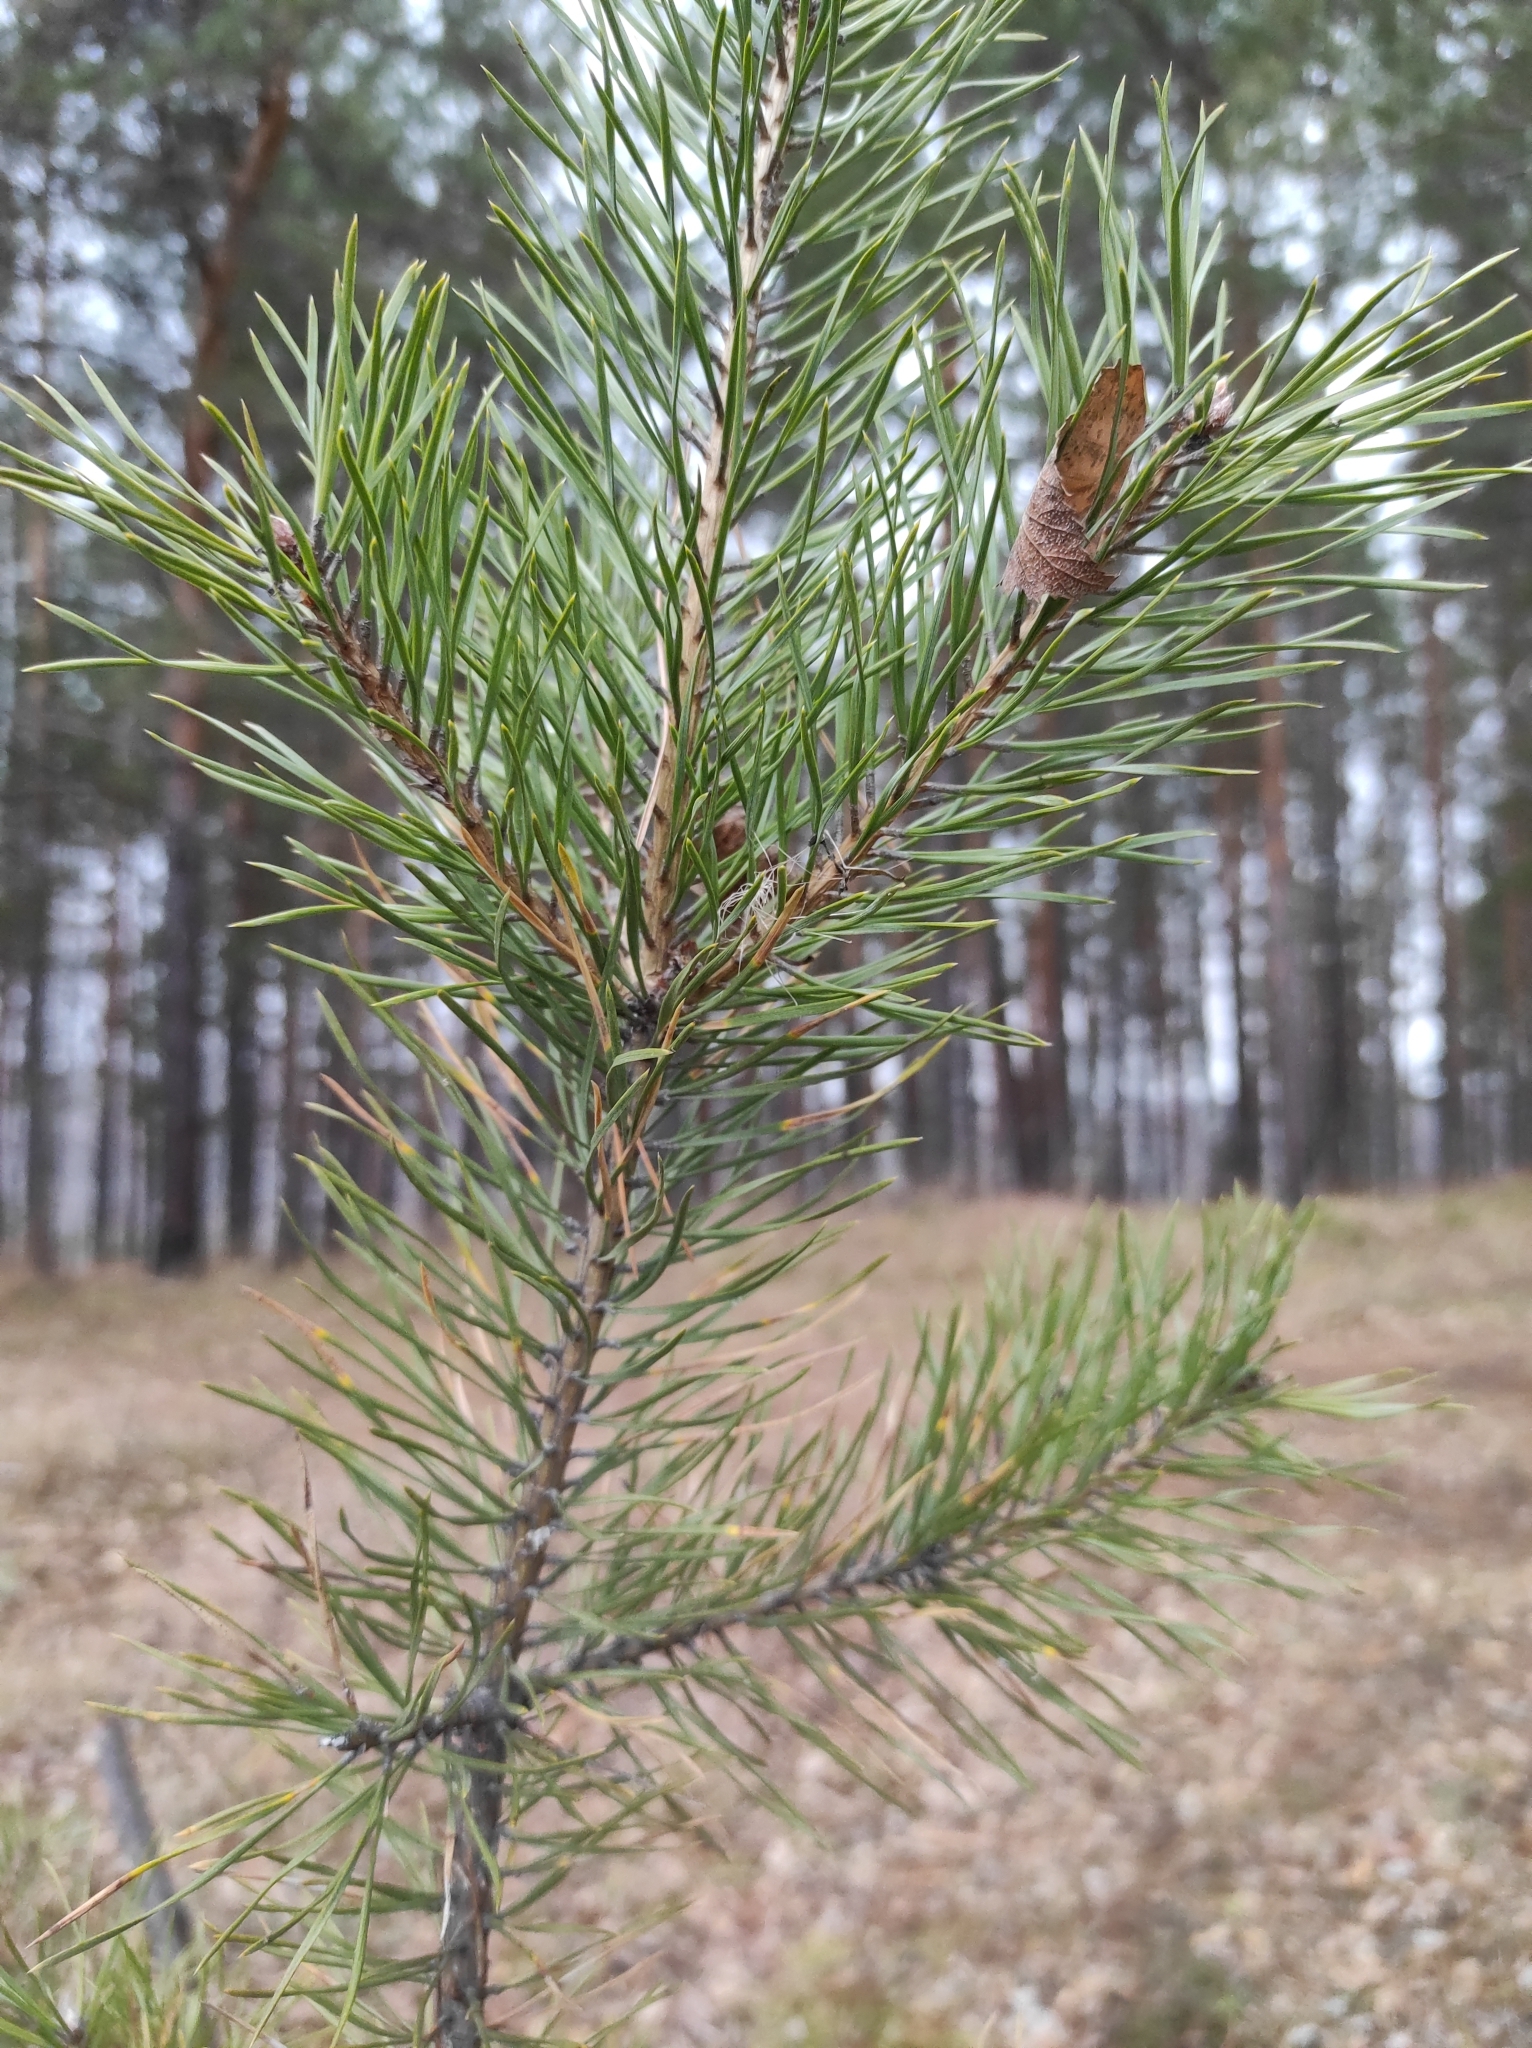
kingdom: Plantae
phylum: Tracheophyta
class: Pinopsida
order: Pinales
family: Pinaceae
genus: Pinus
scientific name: Pinus sylvestris
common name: Scots pine
